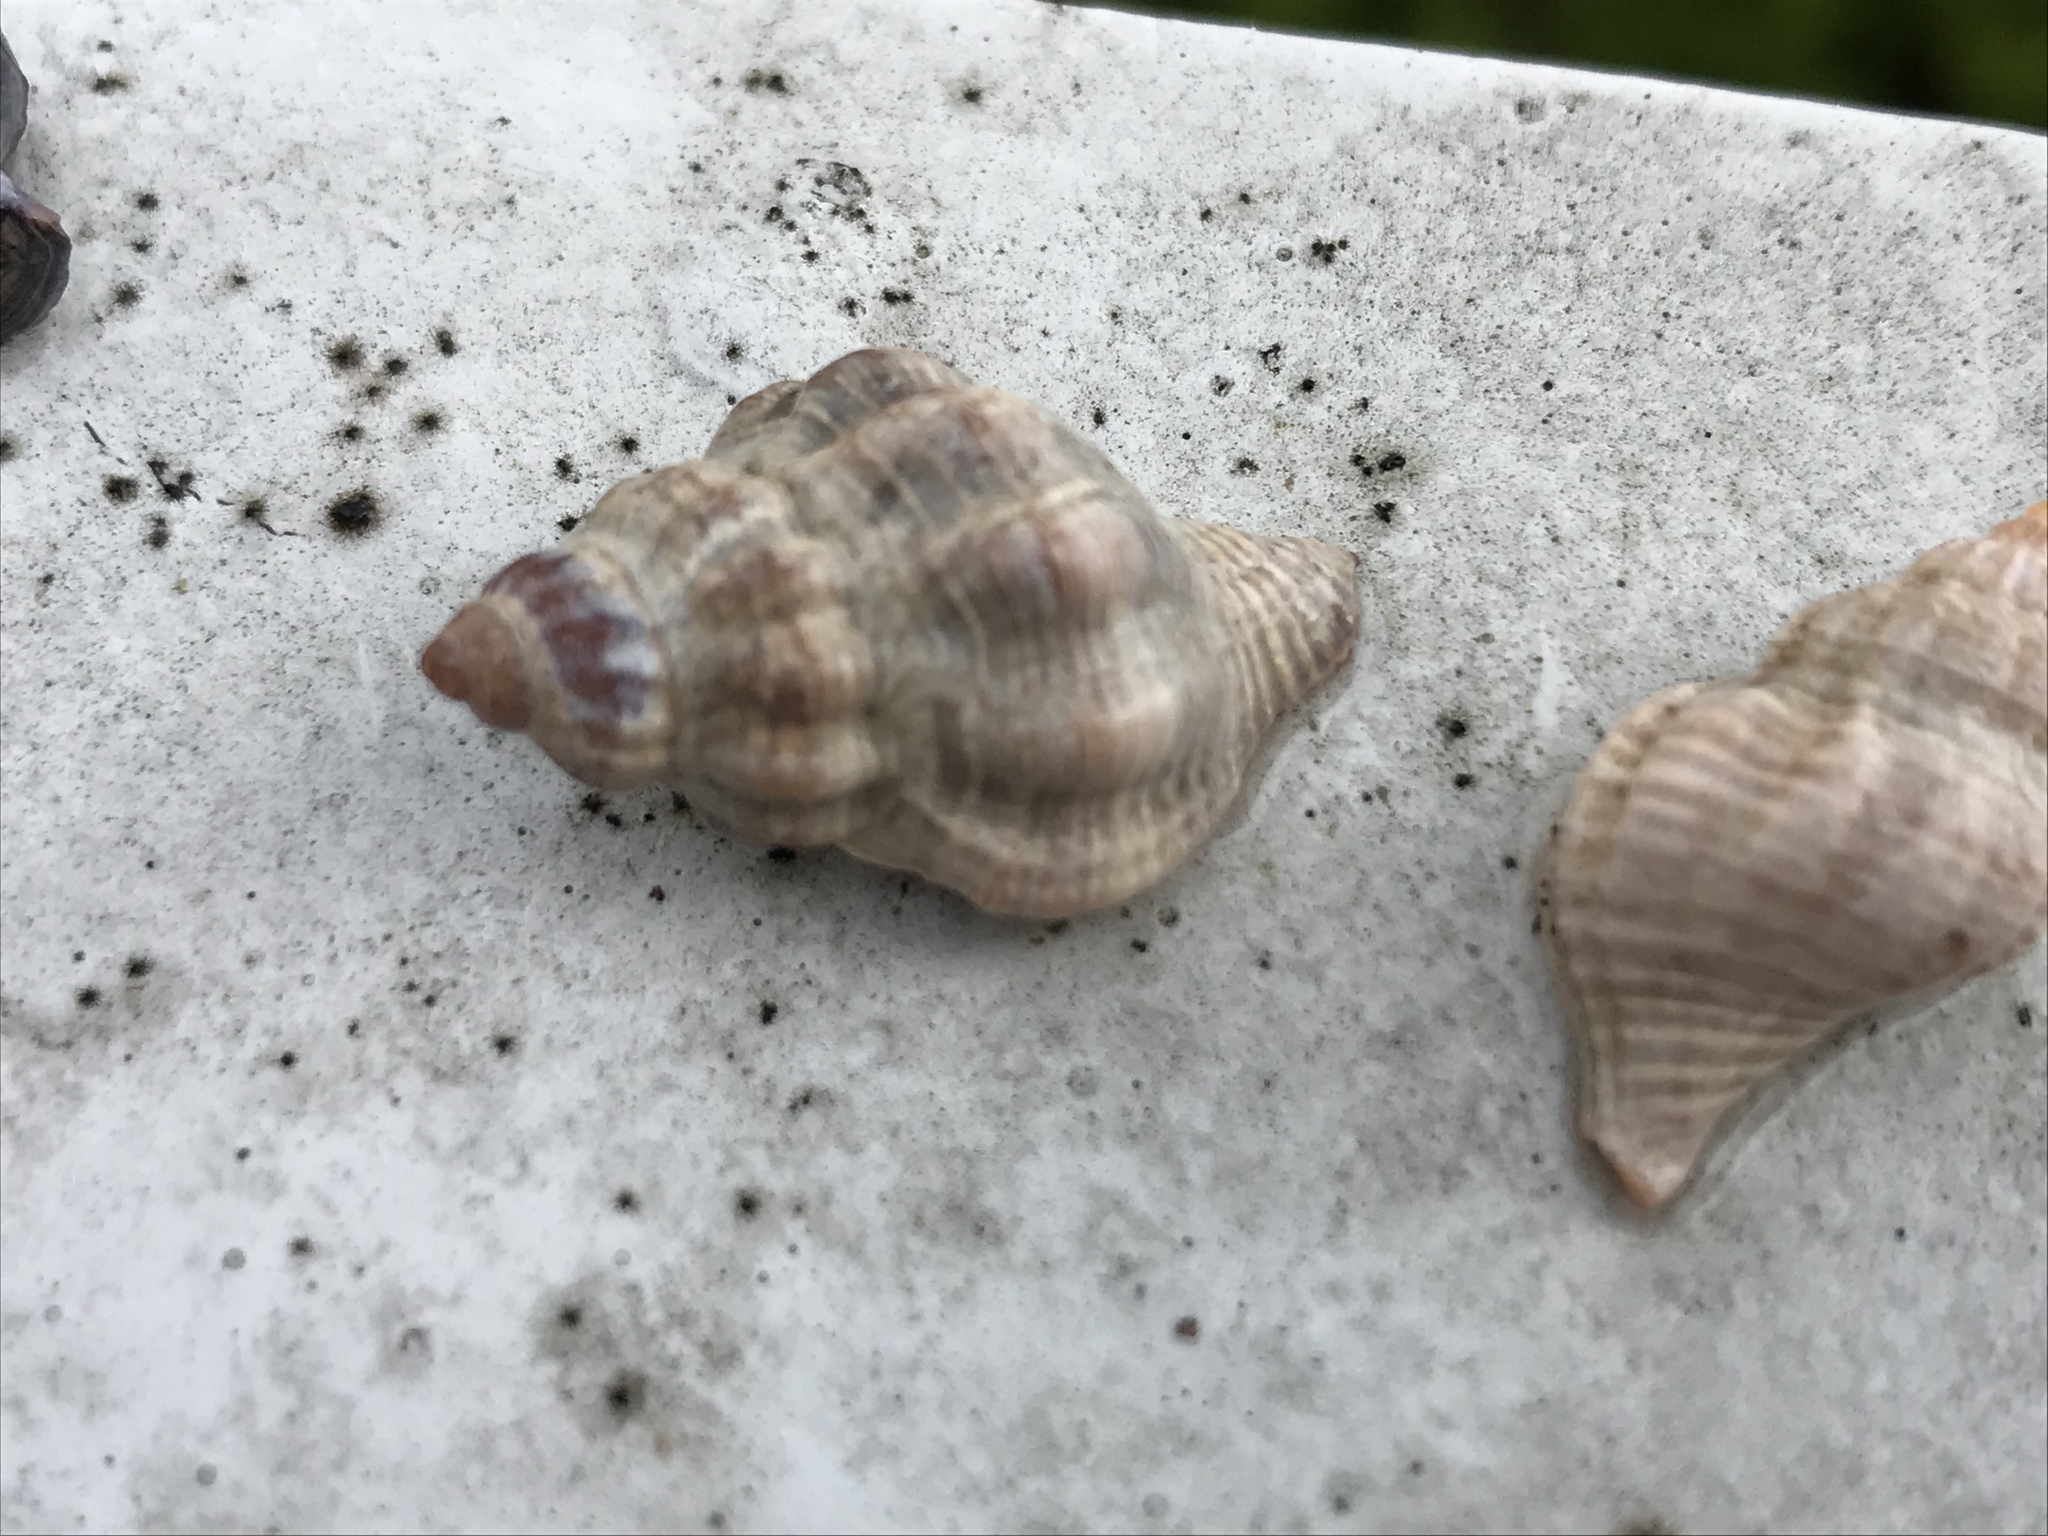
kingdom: Animalia
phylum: Mollusca
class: Gastropoda
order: Neogastropoda
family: Muricidae
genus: Urosalpinx
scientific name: Urosalpinx cinerea
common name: American sting winkle
